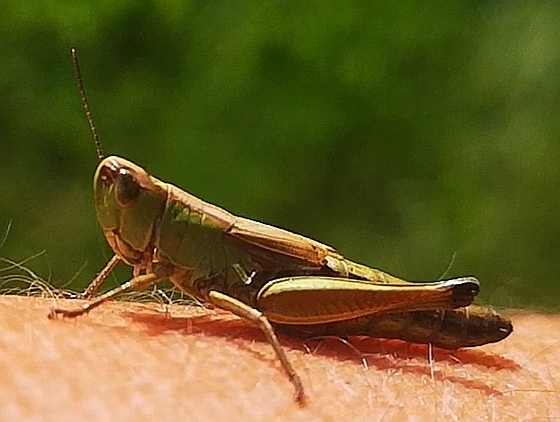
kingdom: Animalia
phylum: Arthropoda
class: Insecta
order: Orthoptera
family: Acrididae
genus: Pseudochorthippus
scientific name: Pseudochorthippus parallelus
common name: Meadow grasshopper
